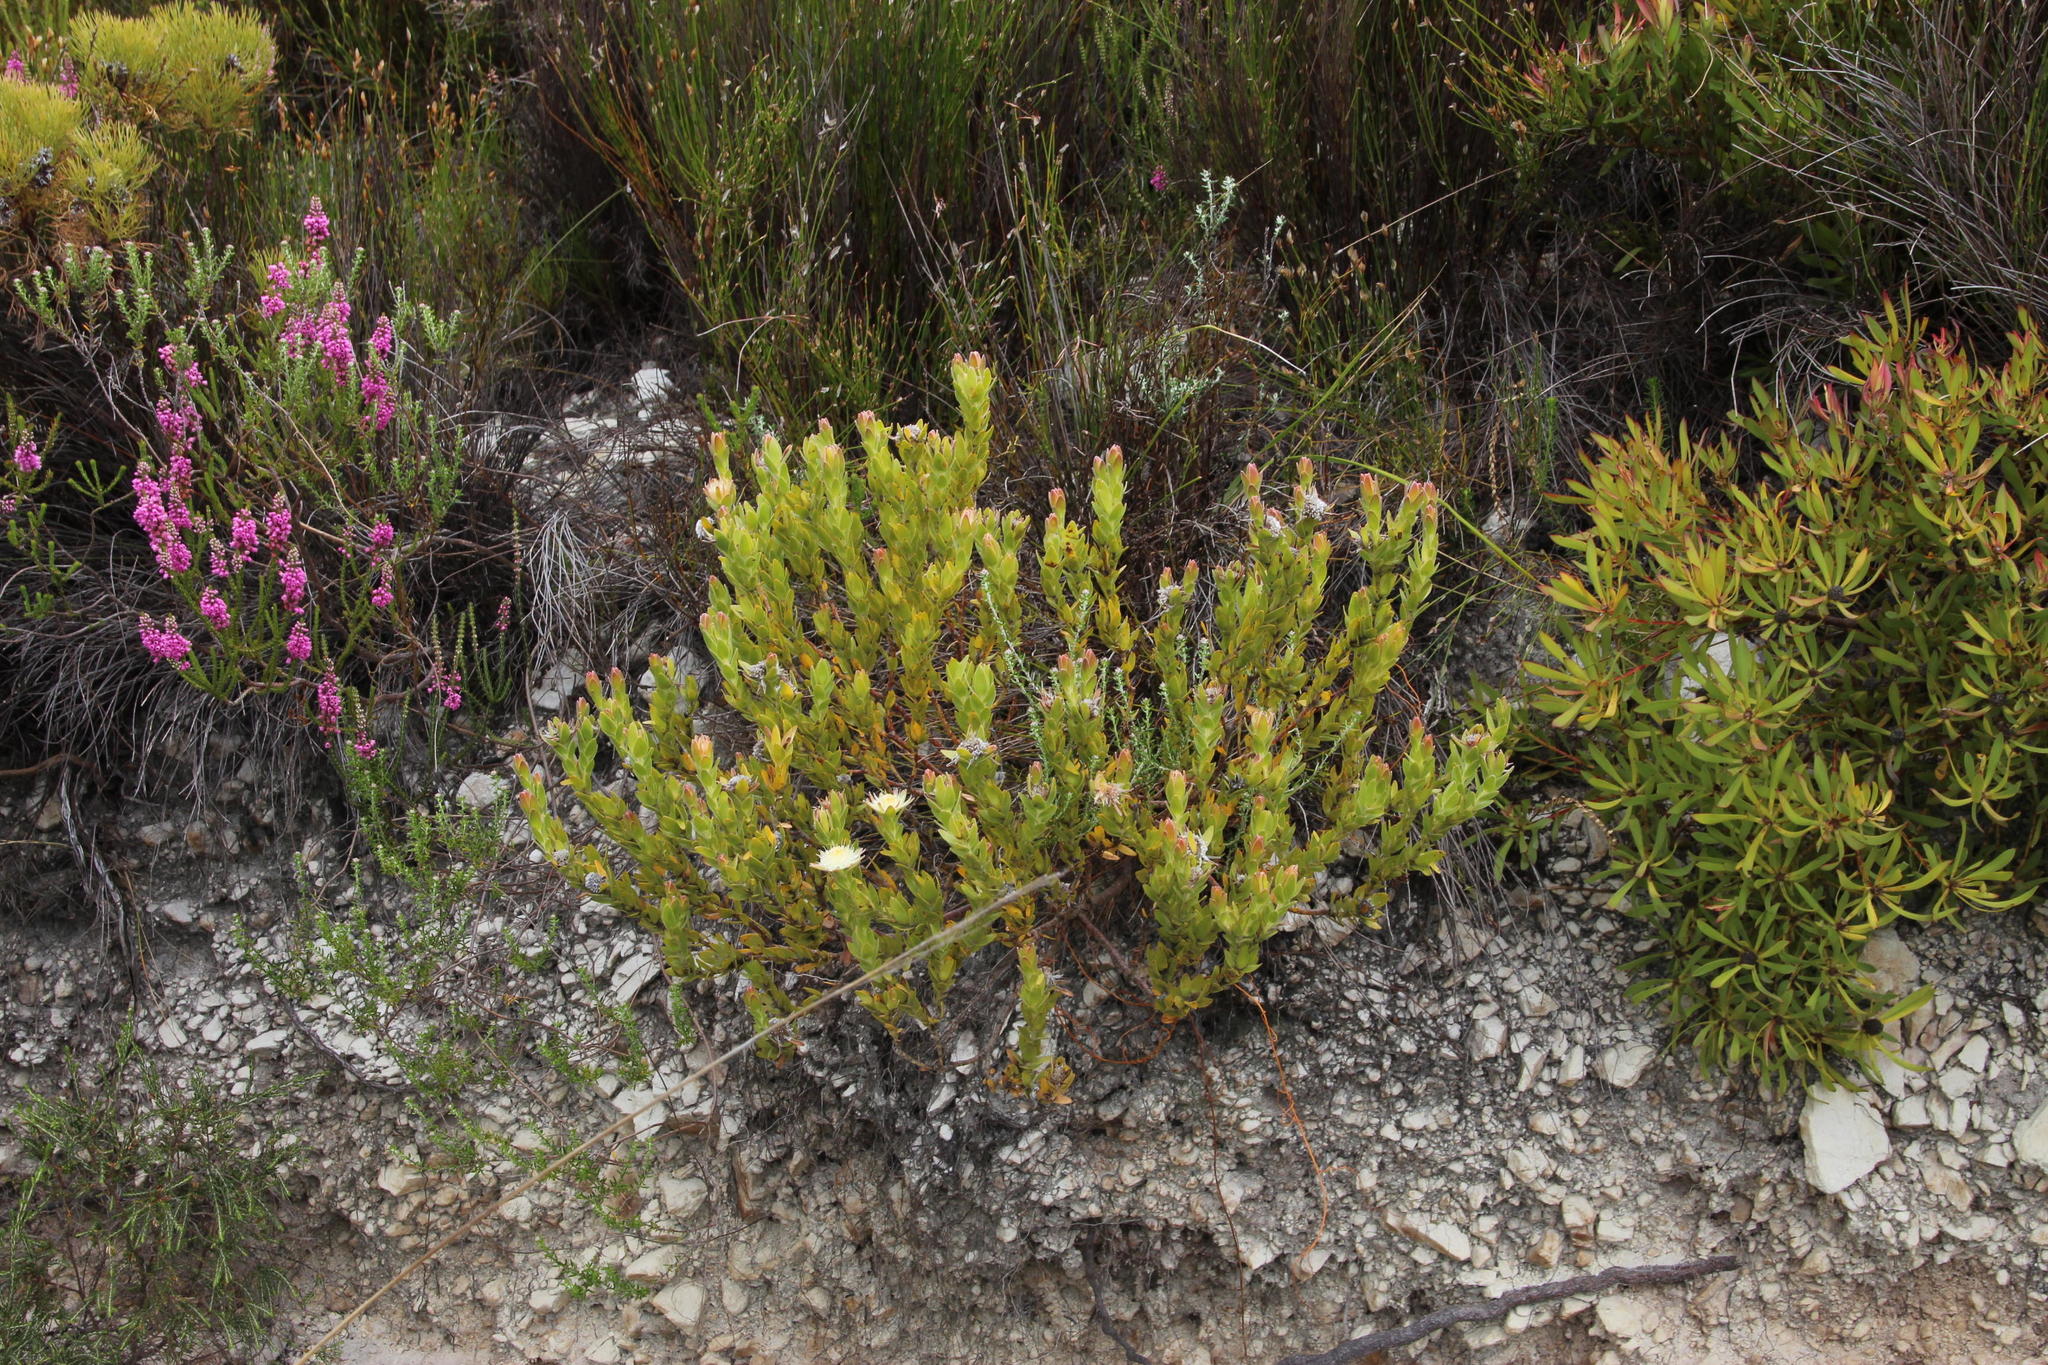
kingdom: Plantae
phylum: Tracheophyta
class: Magnoliopsida
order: Proteales
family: Proteaceae
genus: Diastella
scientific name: Diastella thymelaeoides
